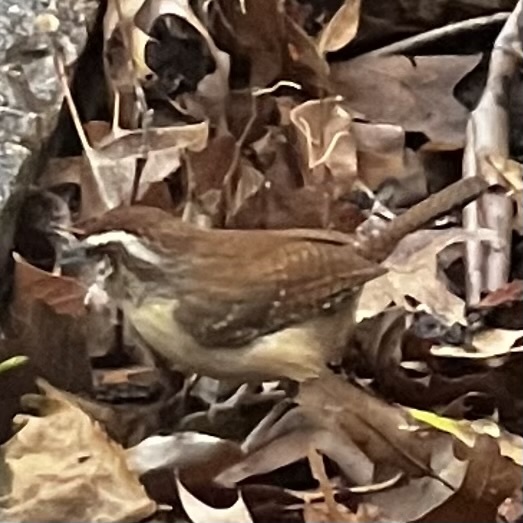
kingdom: Animalia
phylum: Chordata
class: Aves
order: Passeriformes
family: Troglodytidae
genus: Thryothorus
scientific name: Thryothorus ludovicianus
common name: Carolina wren
